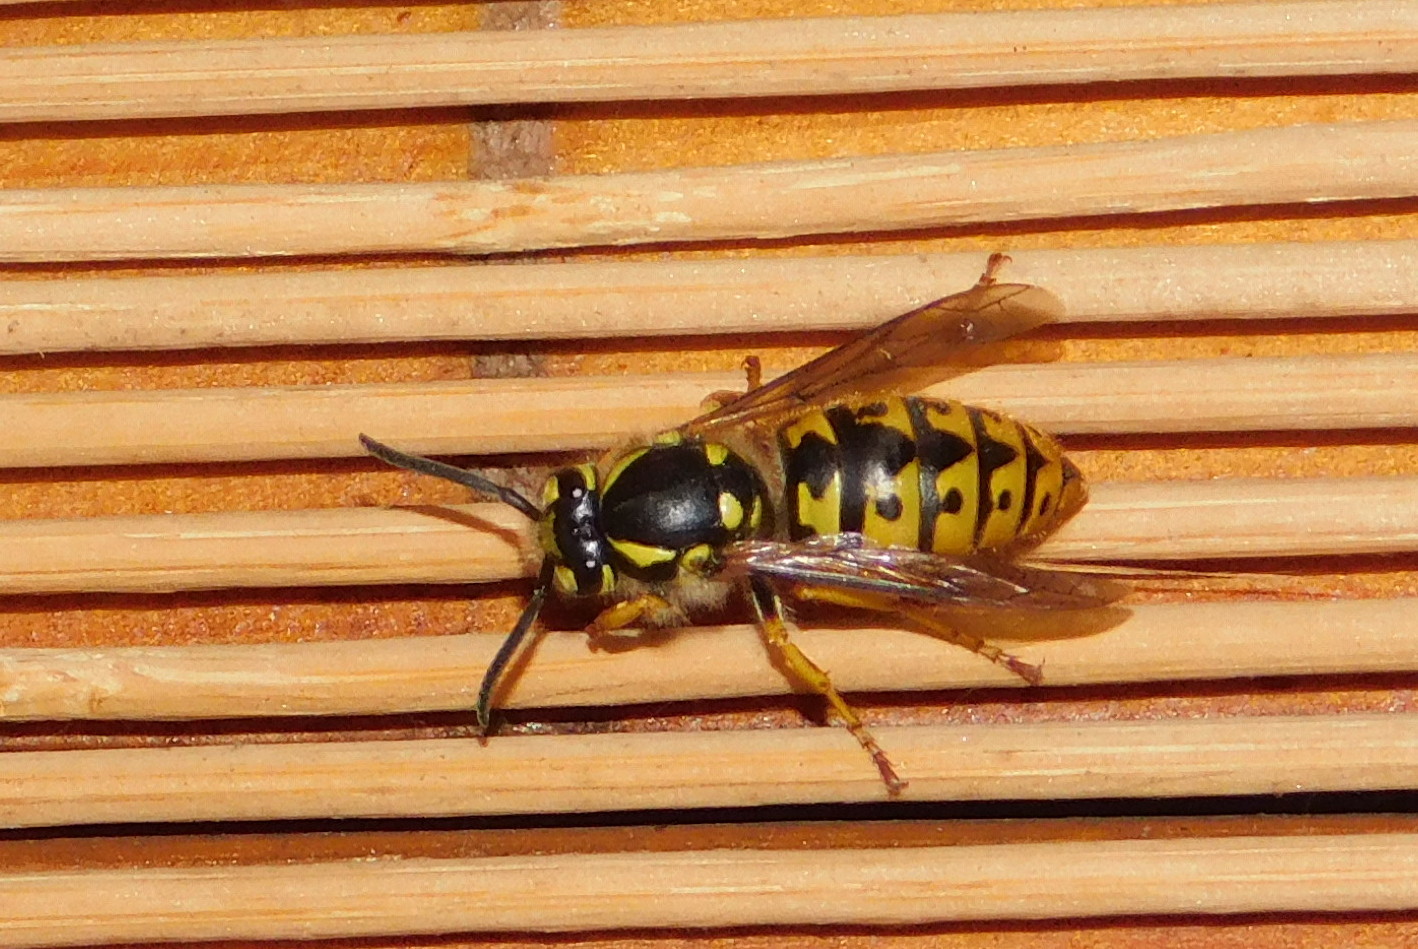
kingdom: Animalia
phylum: Arthropoda
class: Insecta
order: Hymenoptera
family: Vespidae
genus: Vespula
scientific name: Vespula germanica
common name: German wasp
